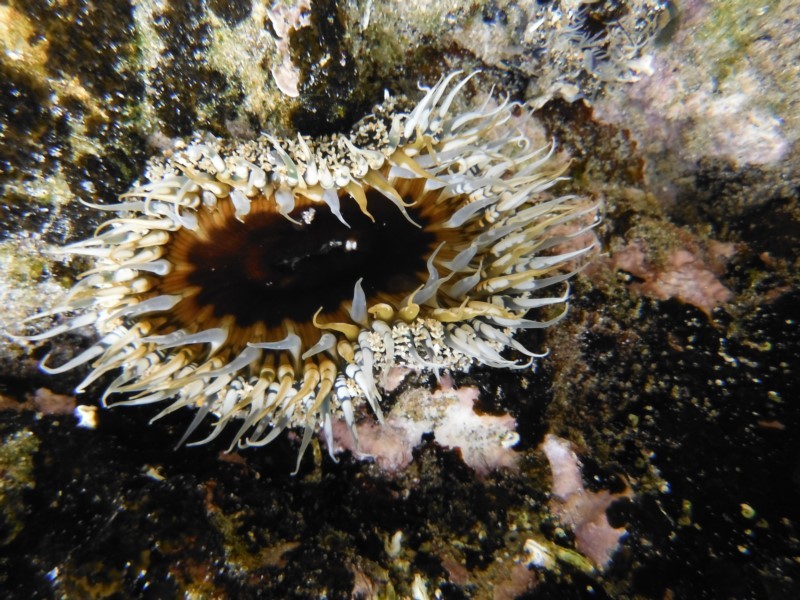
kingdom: Animalia
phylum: Cnidaria
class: Anthozoa
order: Actiniaria
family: Actiniidae
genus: Oulactis
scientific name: Oulactis muscosa
